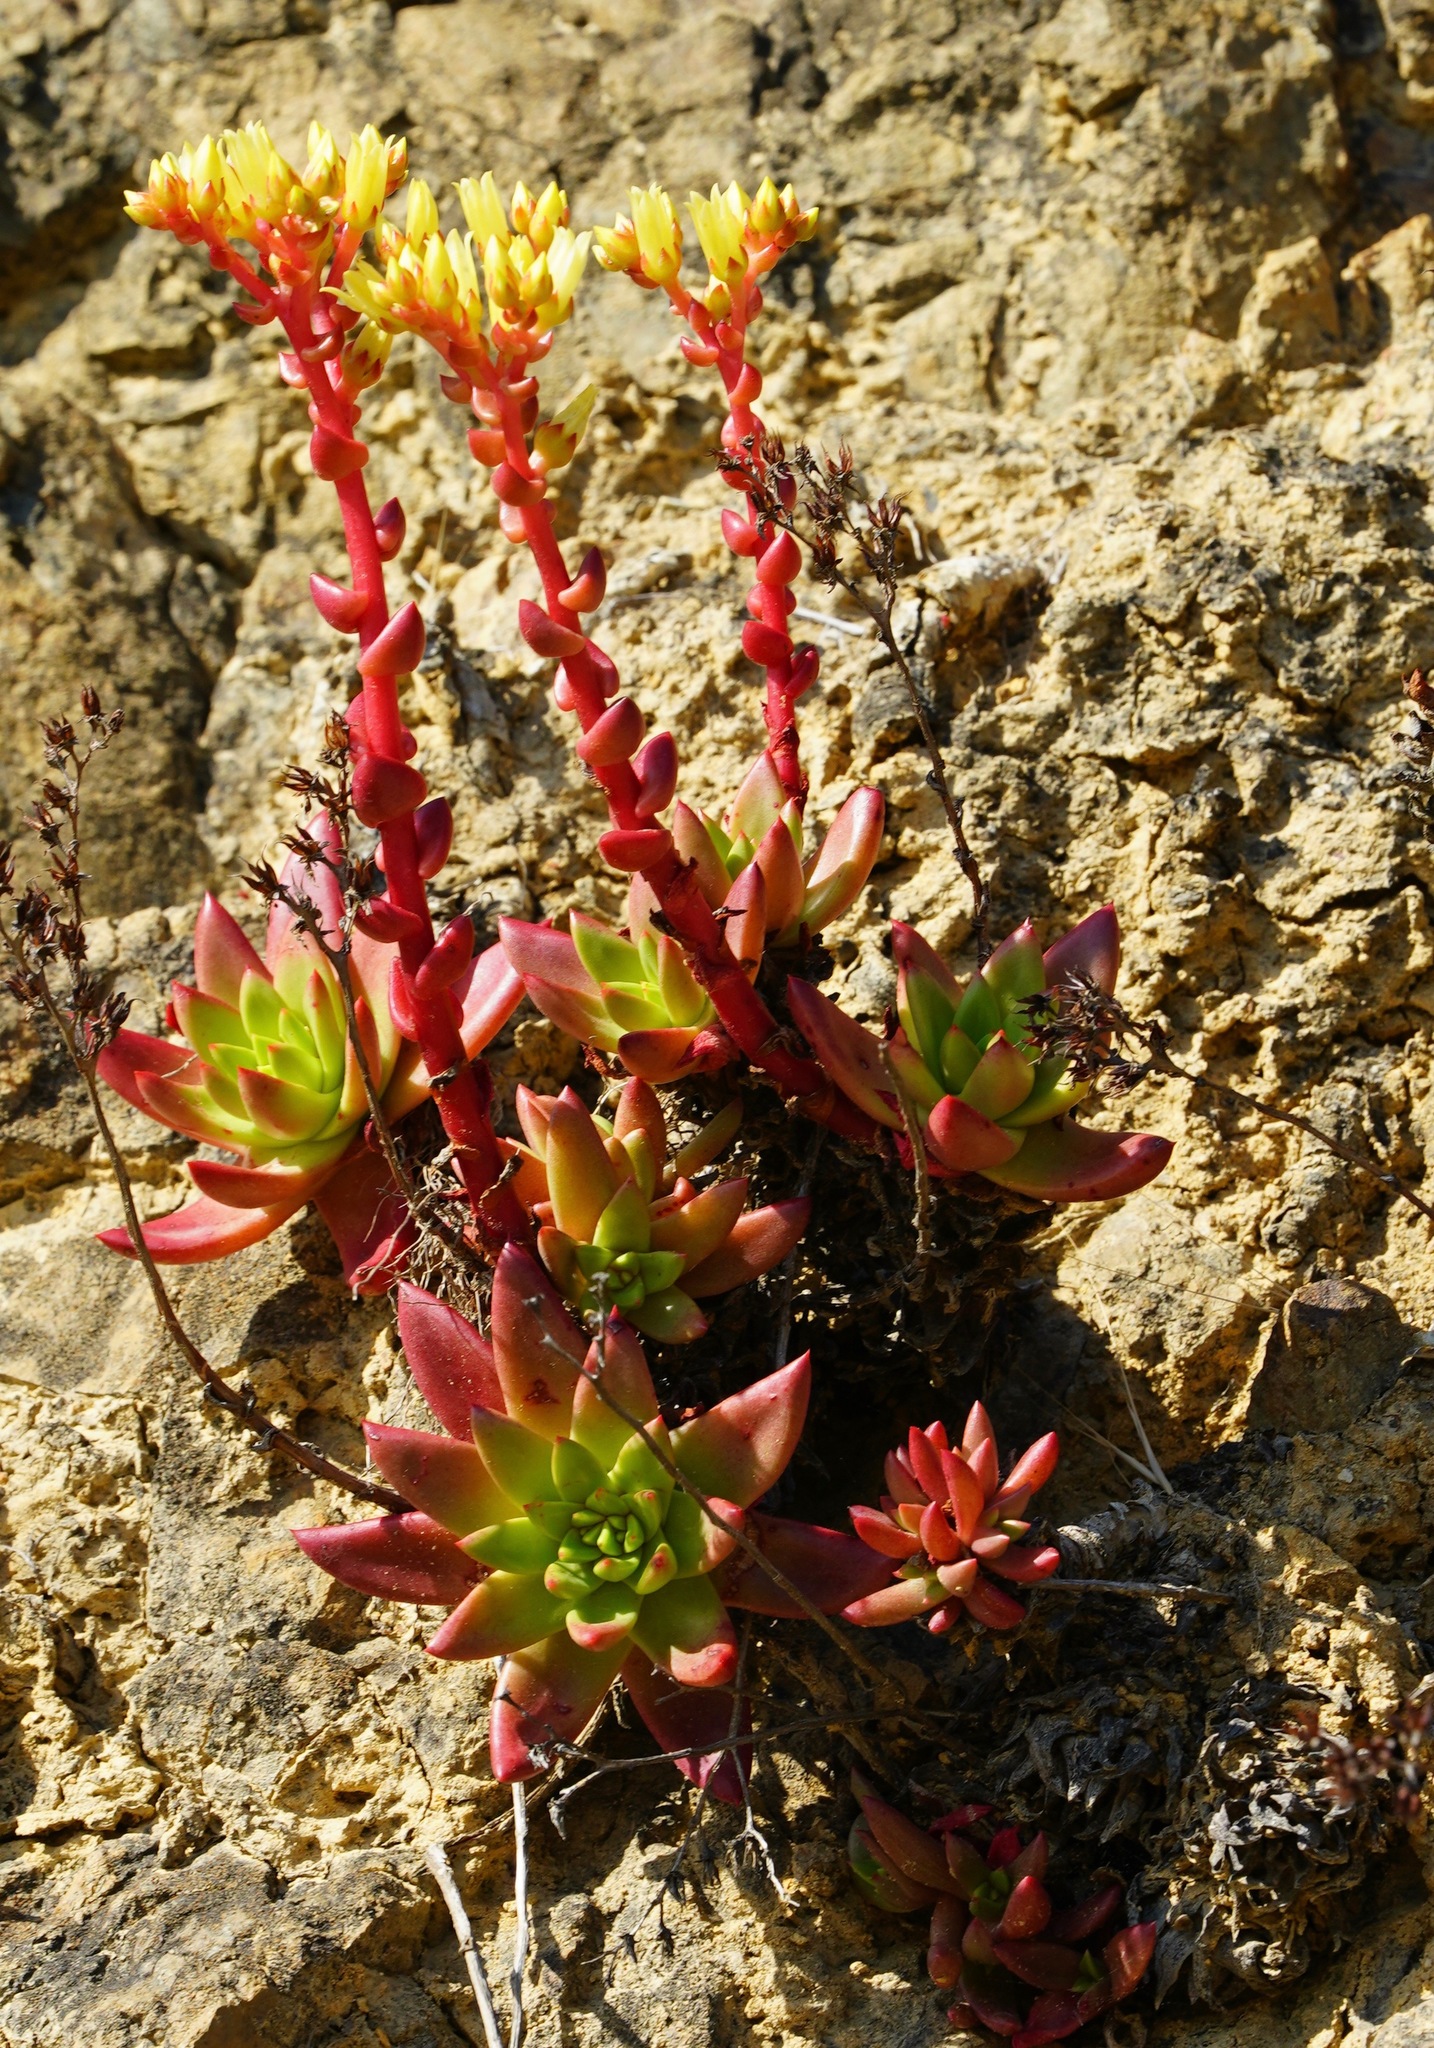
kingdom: Plantae
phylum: Tracheophyta
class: Magnoliopsida
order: Saxifragales
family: Crassulaceae
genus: Dudleya
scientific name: Dudleya farinosa
